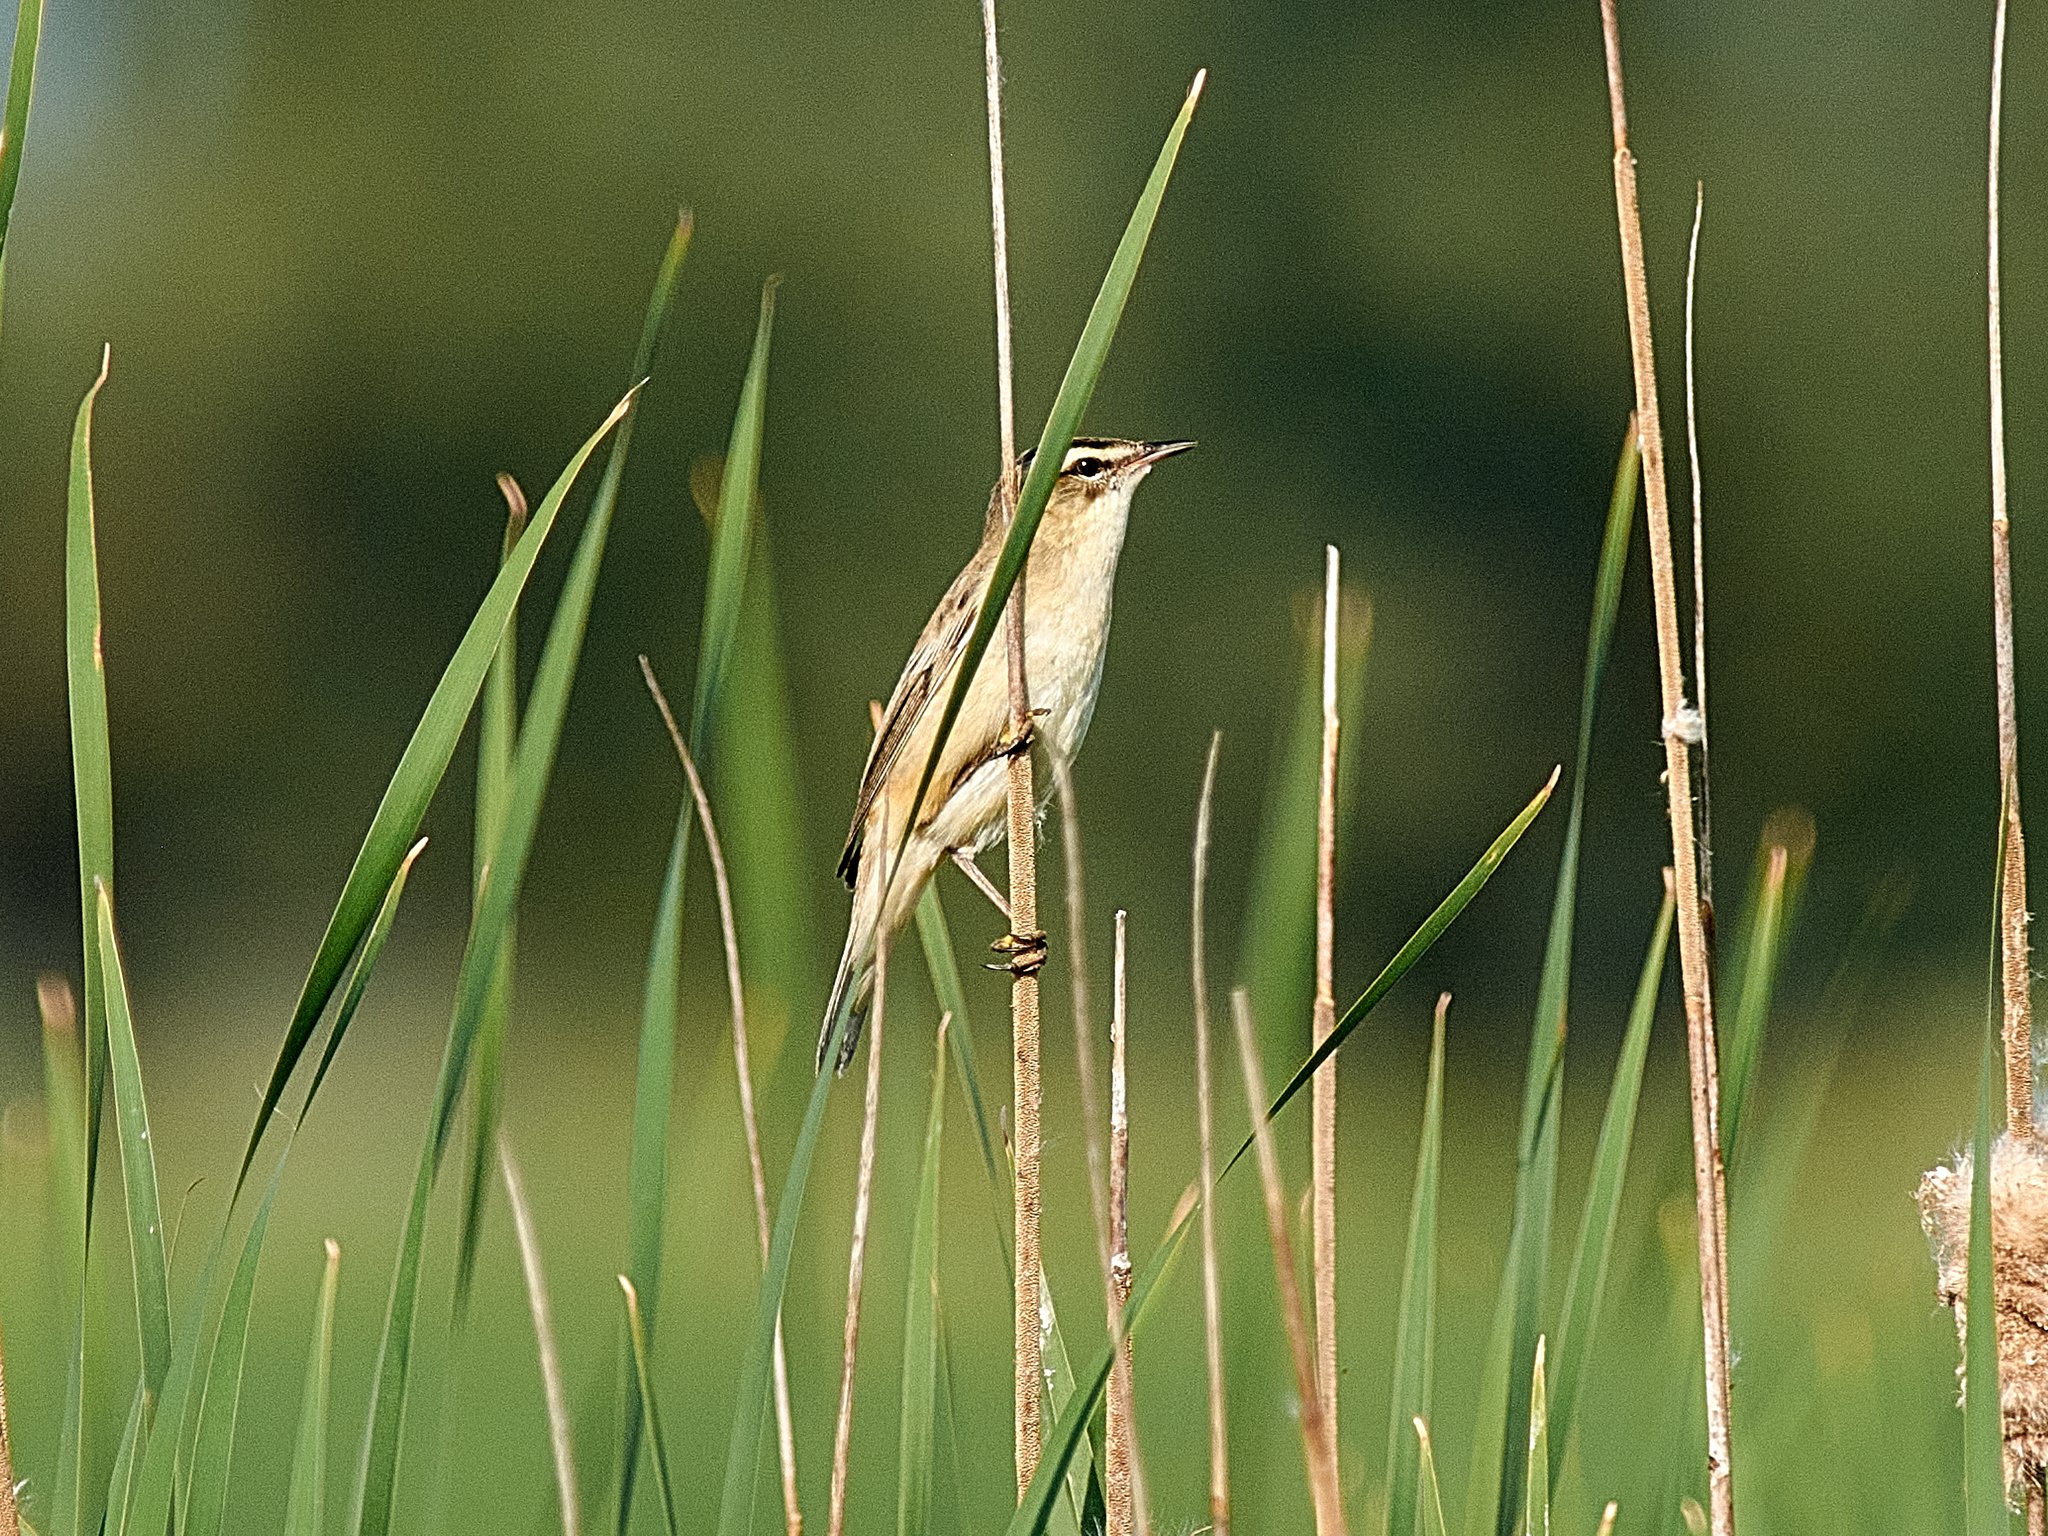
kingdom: Animalia
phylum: Chordata
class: Aves
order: Passeriformes
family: Acrocephalidae
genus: Acrocephalus
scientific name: Acrocephalus schoenobaenus
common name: Sedge warbler
